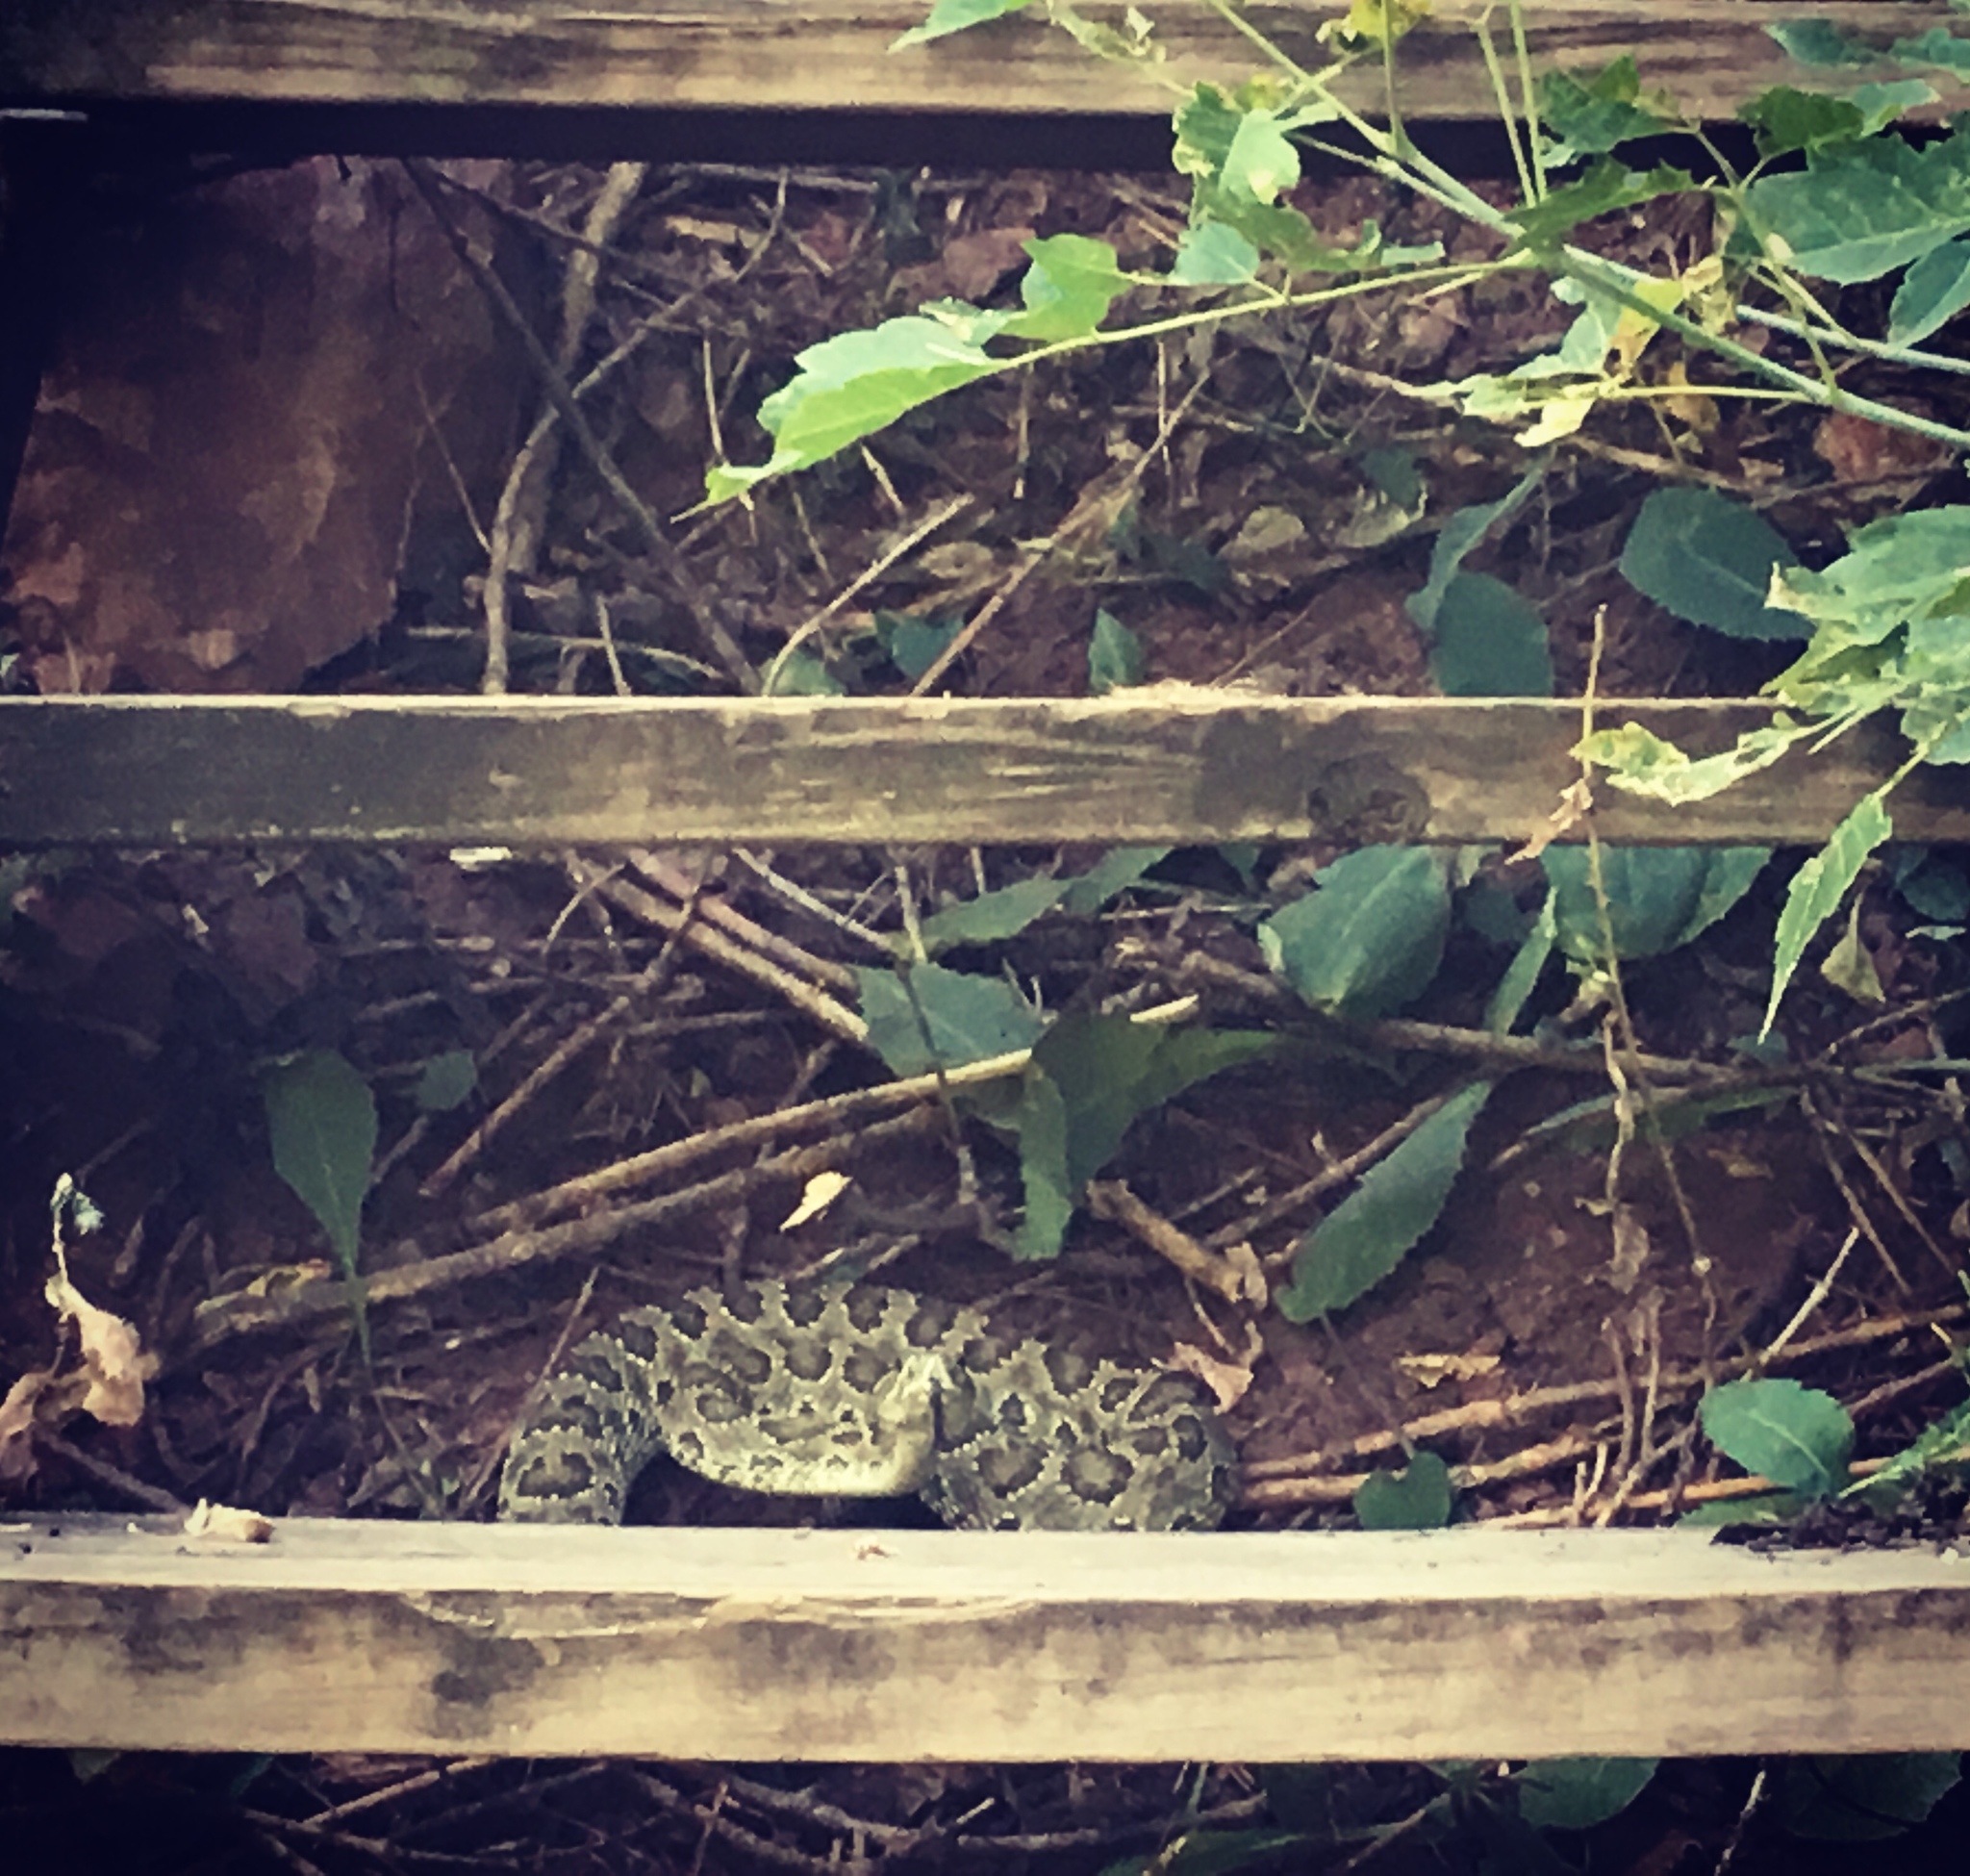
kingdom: Animalia
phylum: Chordata
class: Squamata
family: Viperidae
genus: Crotalus
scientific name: Crotalus viridis
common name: Prairie rattlesnake
